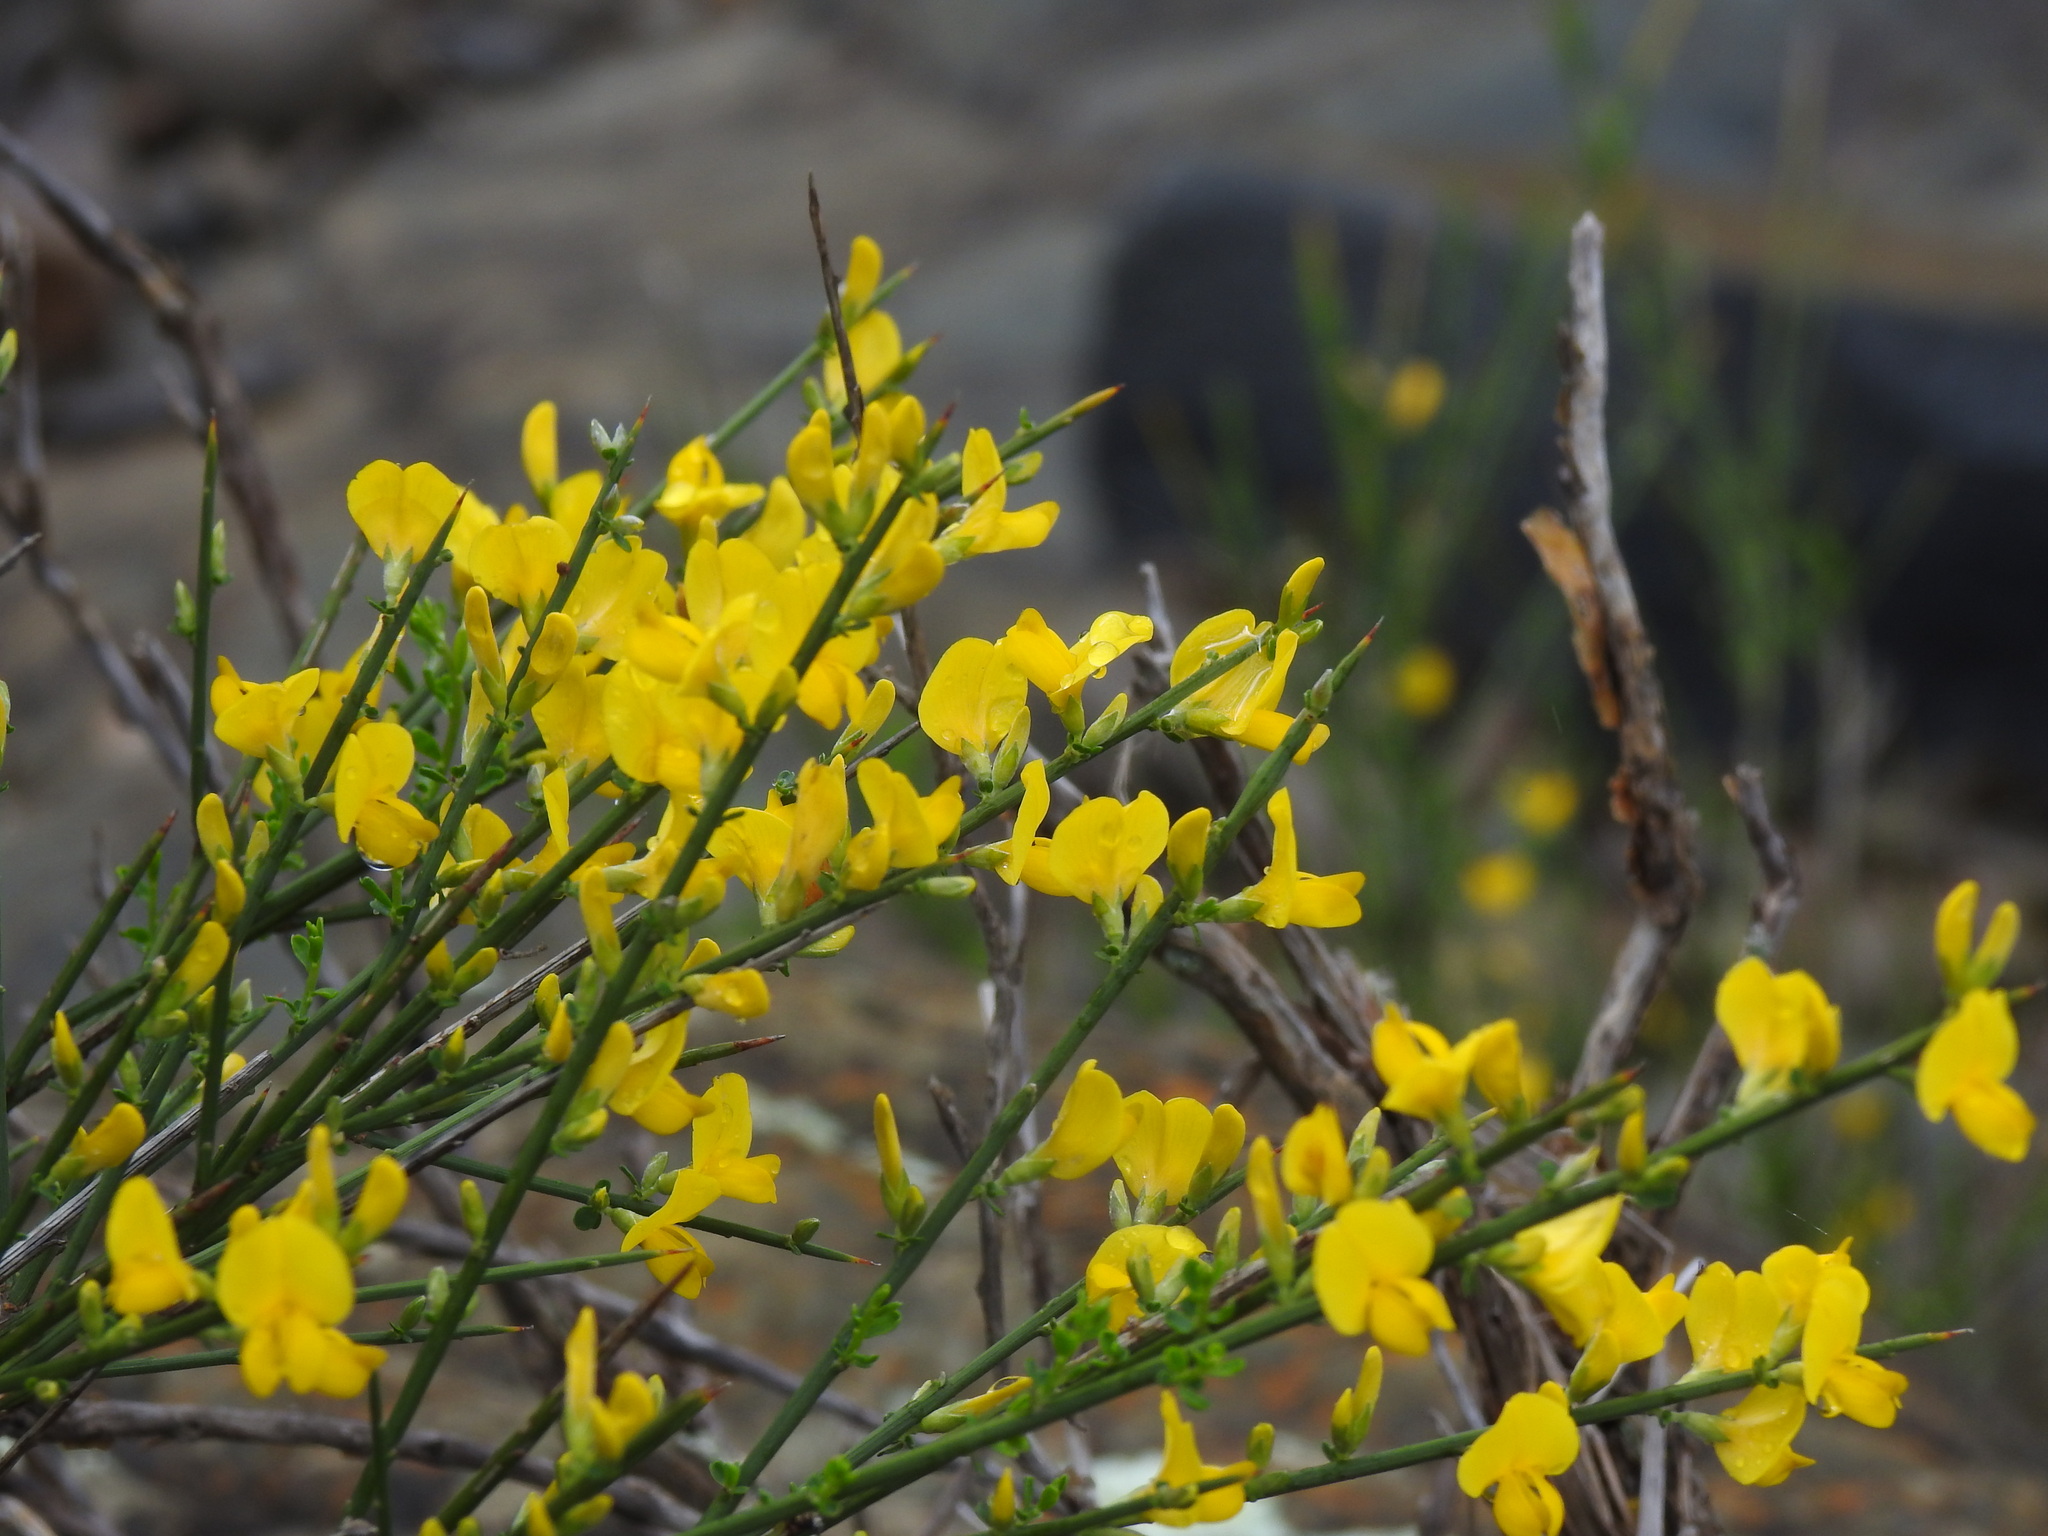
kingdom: Plantae
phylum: Tracheophyta
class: Magnoliopsida
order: Fabales
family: Fabaceae
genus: Genista
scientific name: Genista polyanthos
